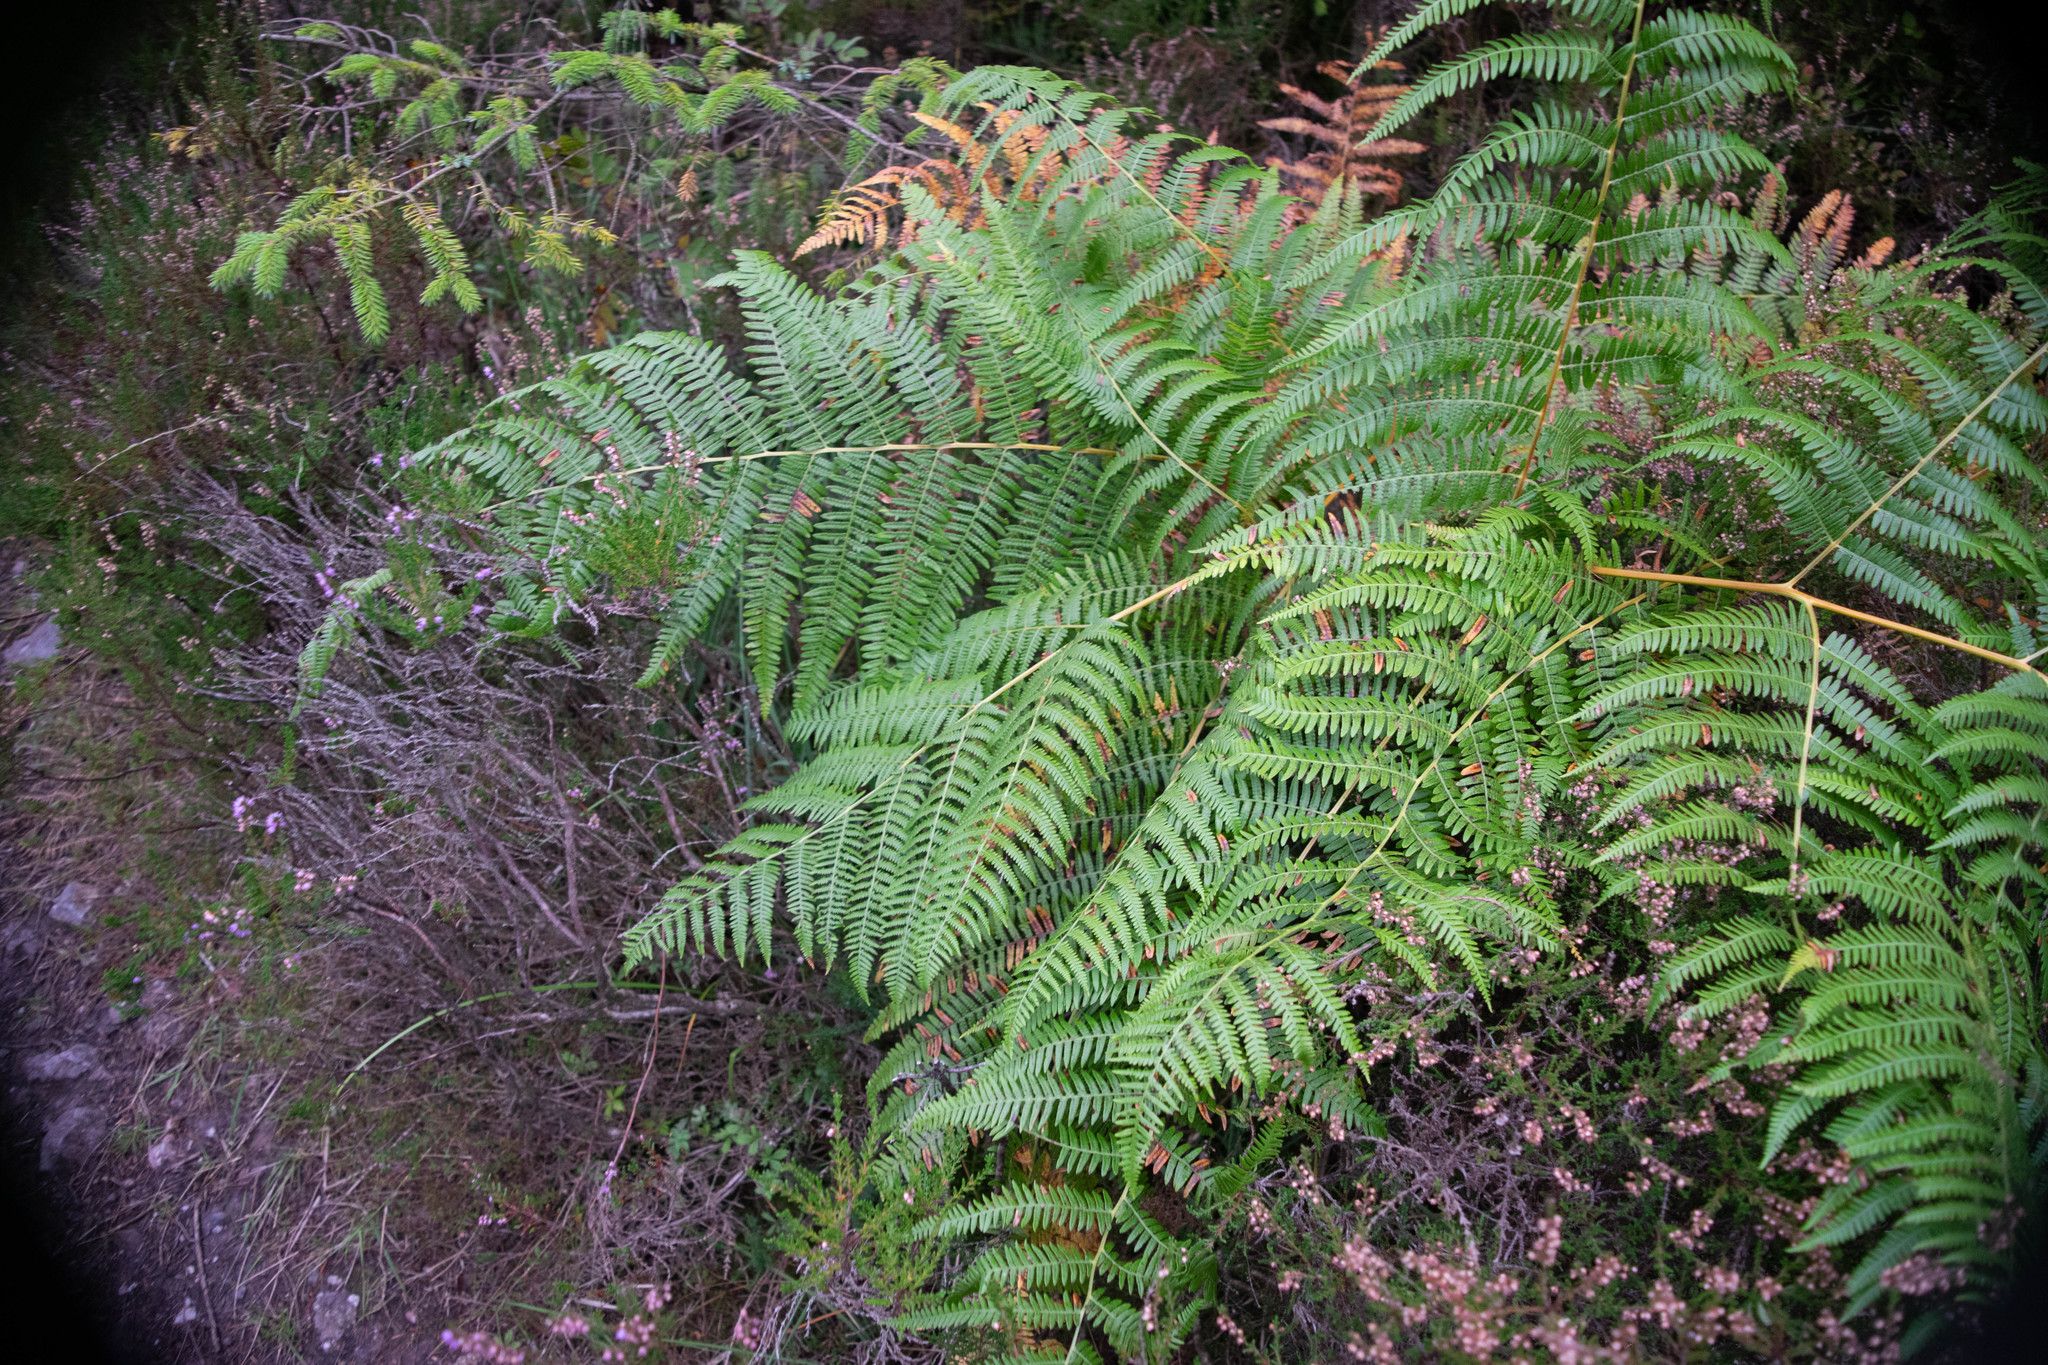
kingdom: Plantae
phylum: Tracheophyta
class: Polypodiopsida
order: Polypodiales
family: Dennstaedtiaceae
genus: Pteridium
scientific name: Pteridium aquilinum
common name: Bracken
